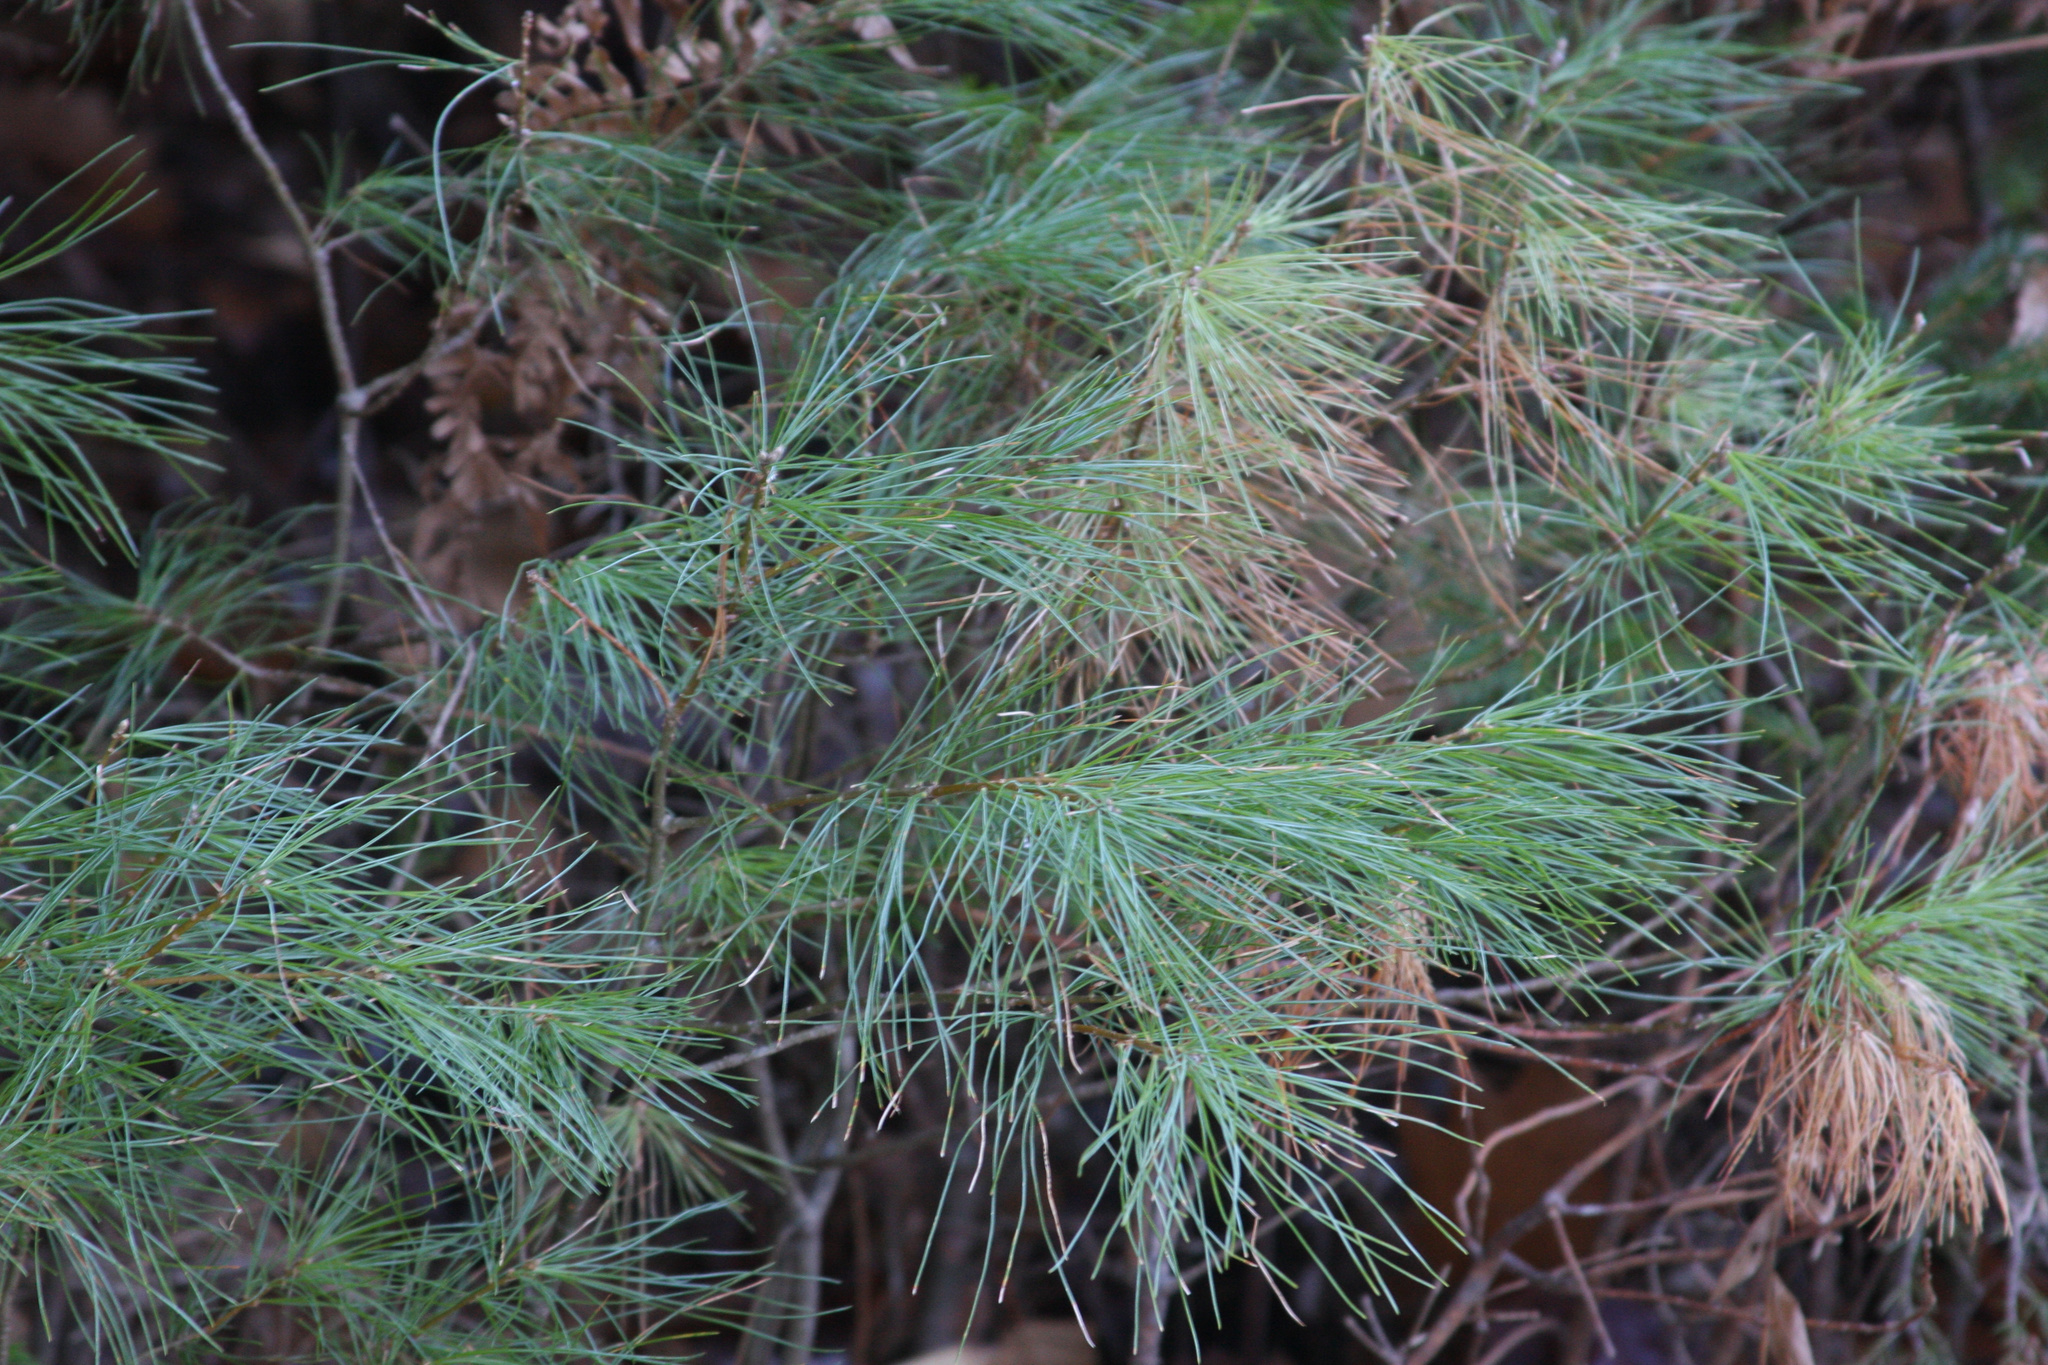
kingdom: Plantae
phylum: Tracheophyta
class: Pinopsida
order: Pinales
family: Pinaceae
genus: Pinus
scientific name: Pinus strobus
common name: Weymouth pine
